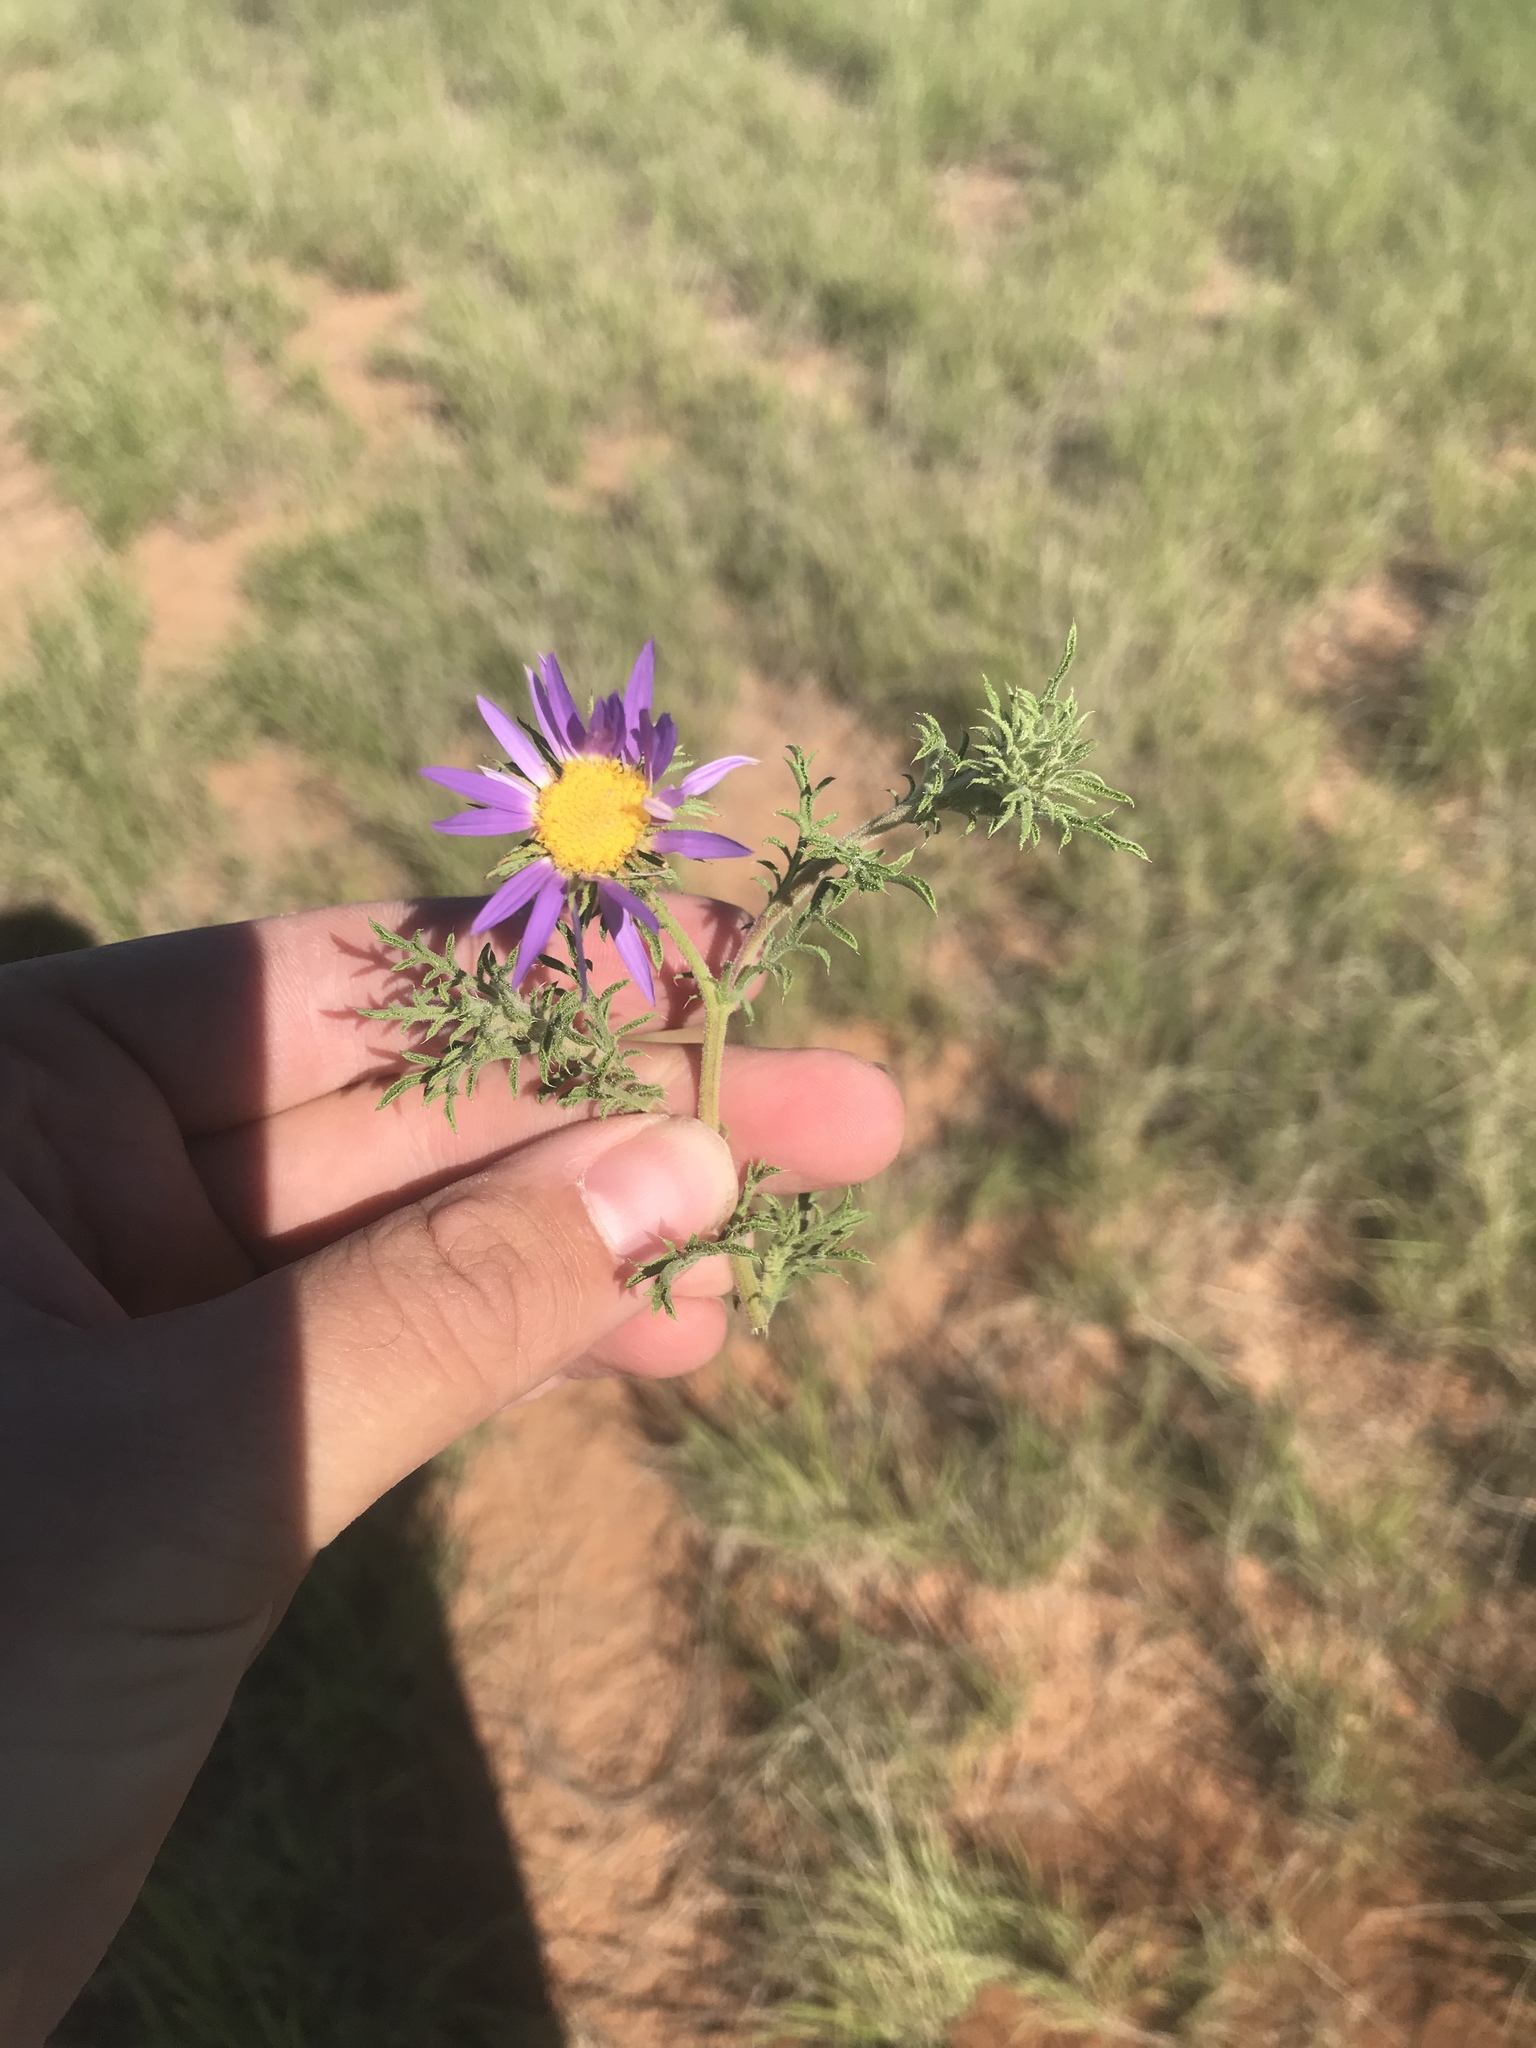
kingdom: Plantae
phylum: Tracheophyta
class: Magnoliopsida
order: Asterales
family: Asteraceae
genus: Machaeranthera
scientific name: Machaeranthera tanacetifolia
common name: Tansy-aster
